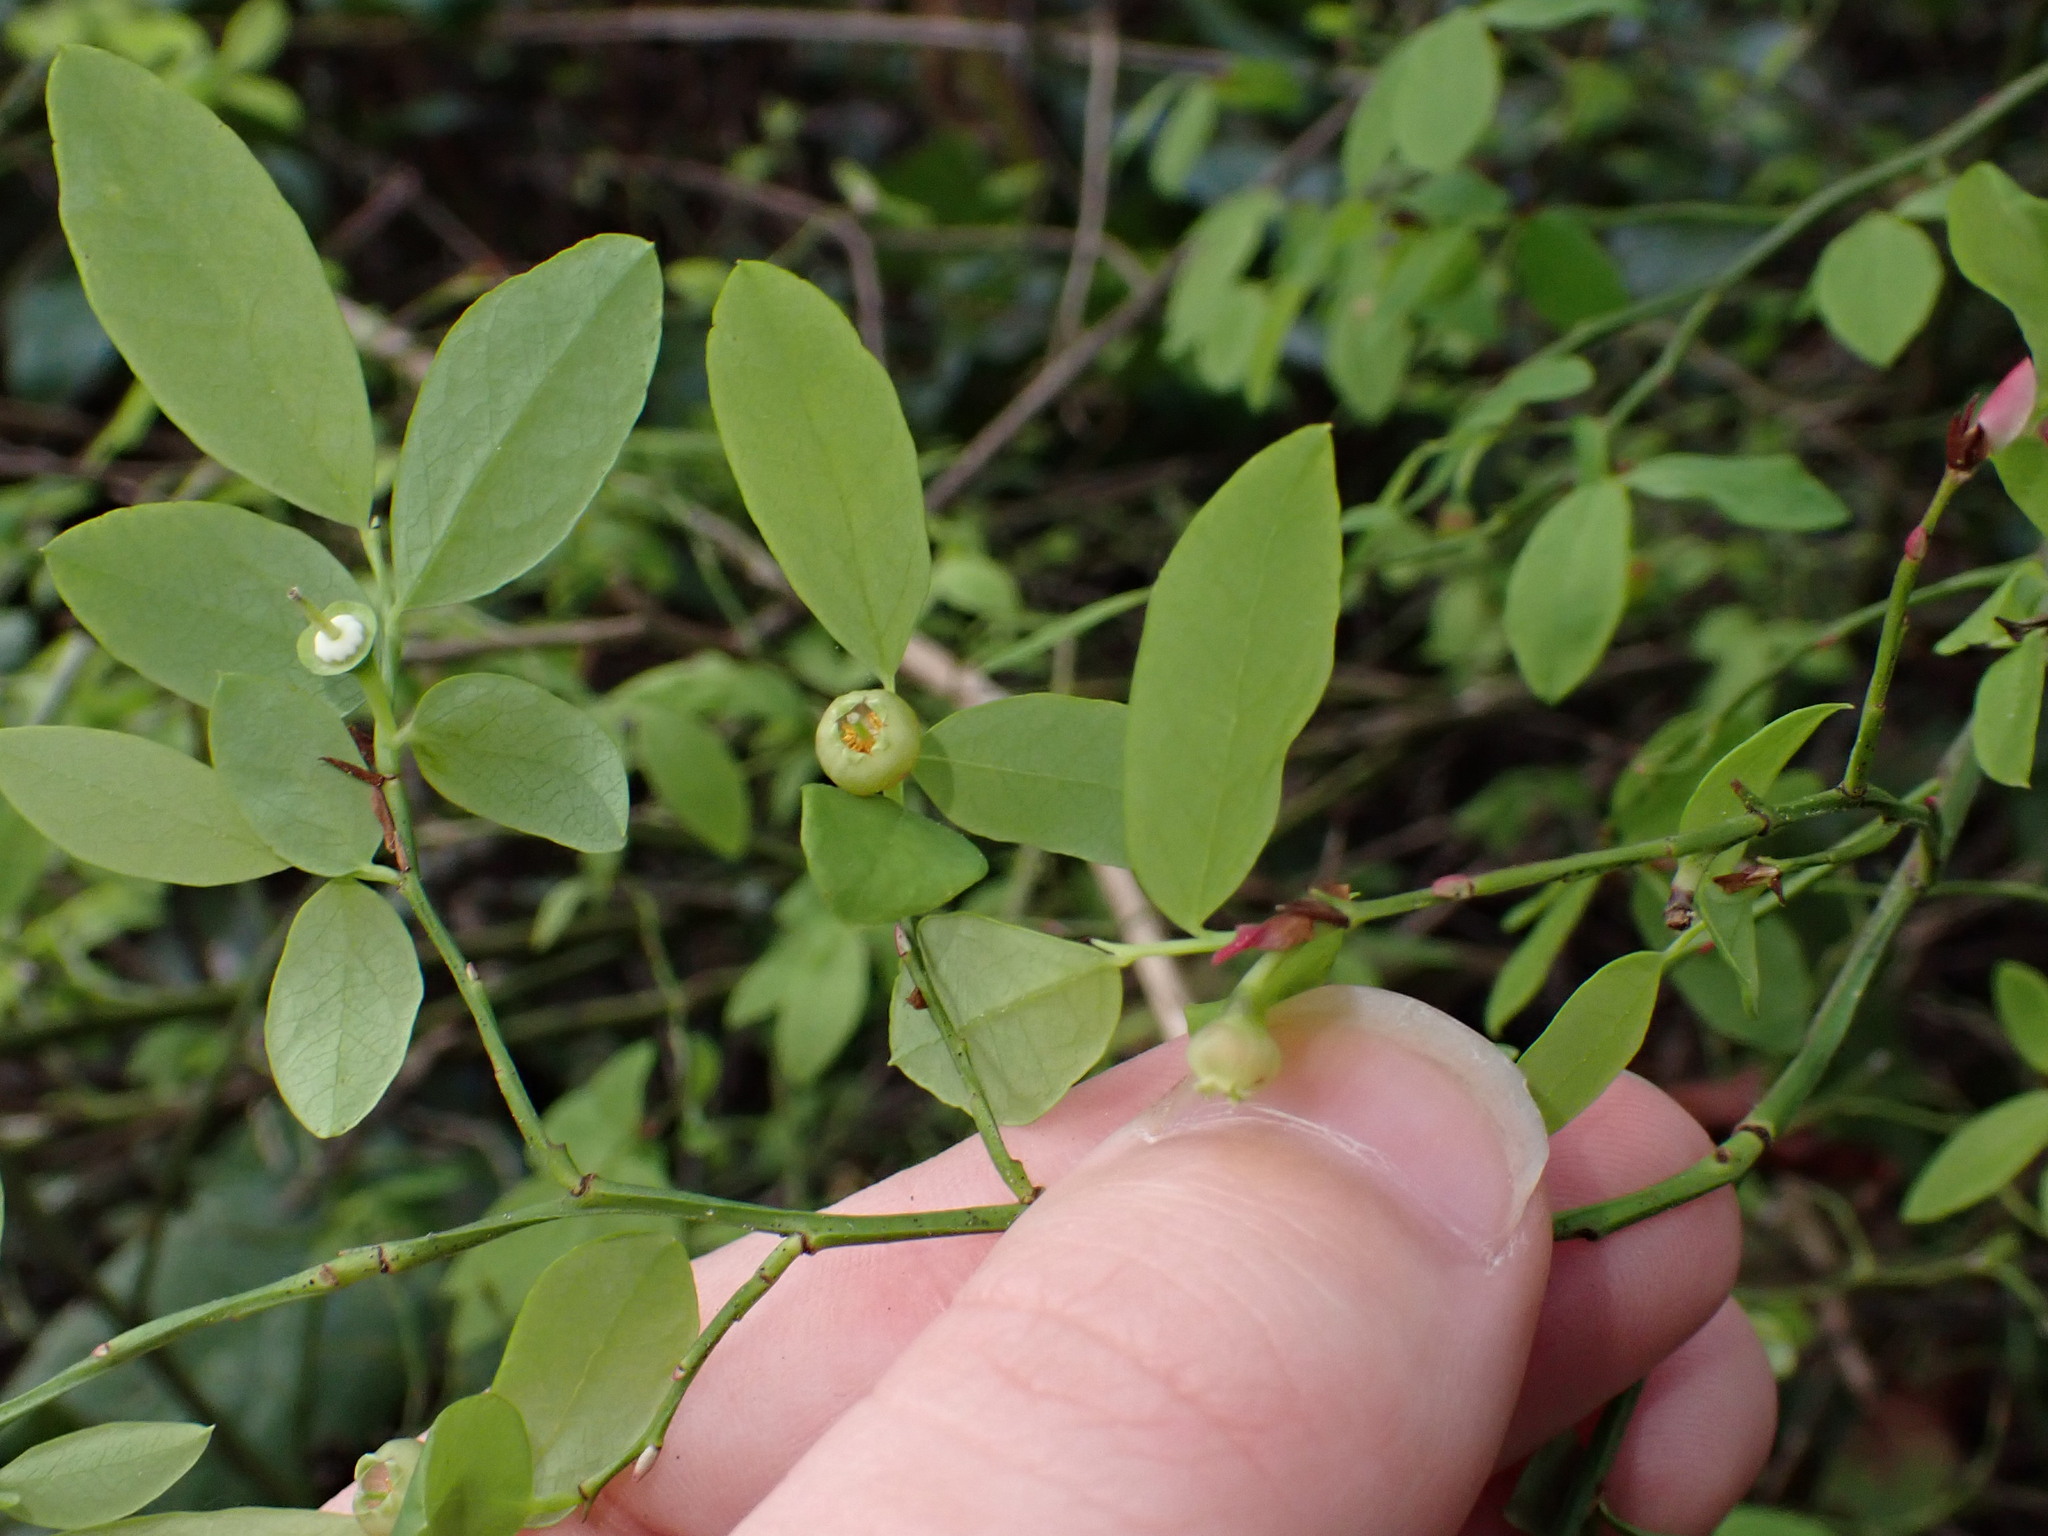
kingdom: Plantae
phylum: Tracheophyta
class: Magnoliopsida
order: Ericales
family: Ericaceae
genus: Vaccinium
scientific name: Vaccinium parvifolium
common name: Red-huckleberry
